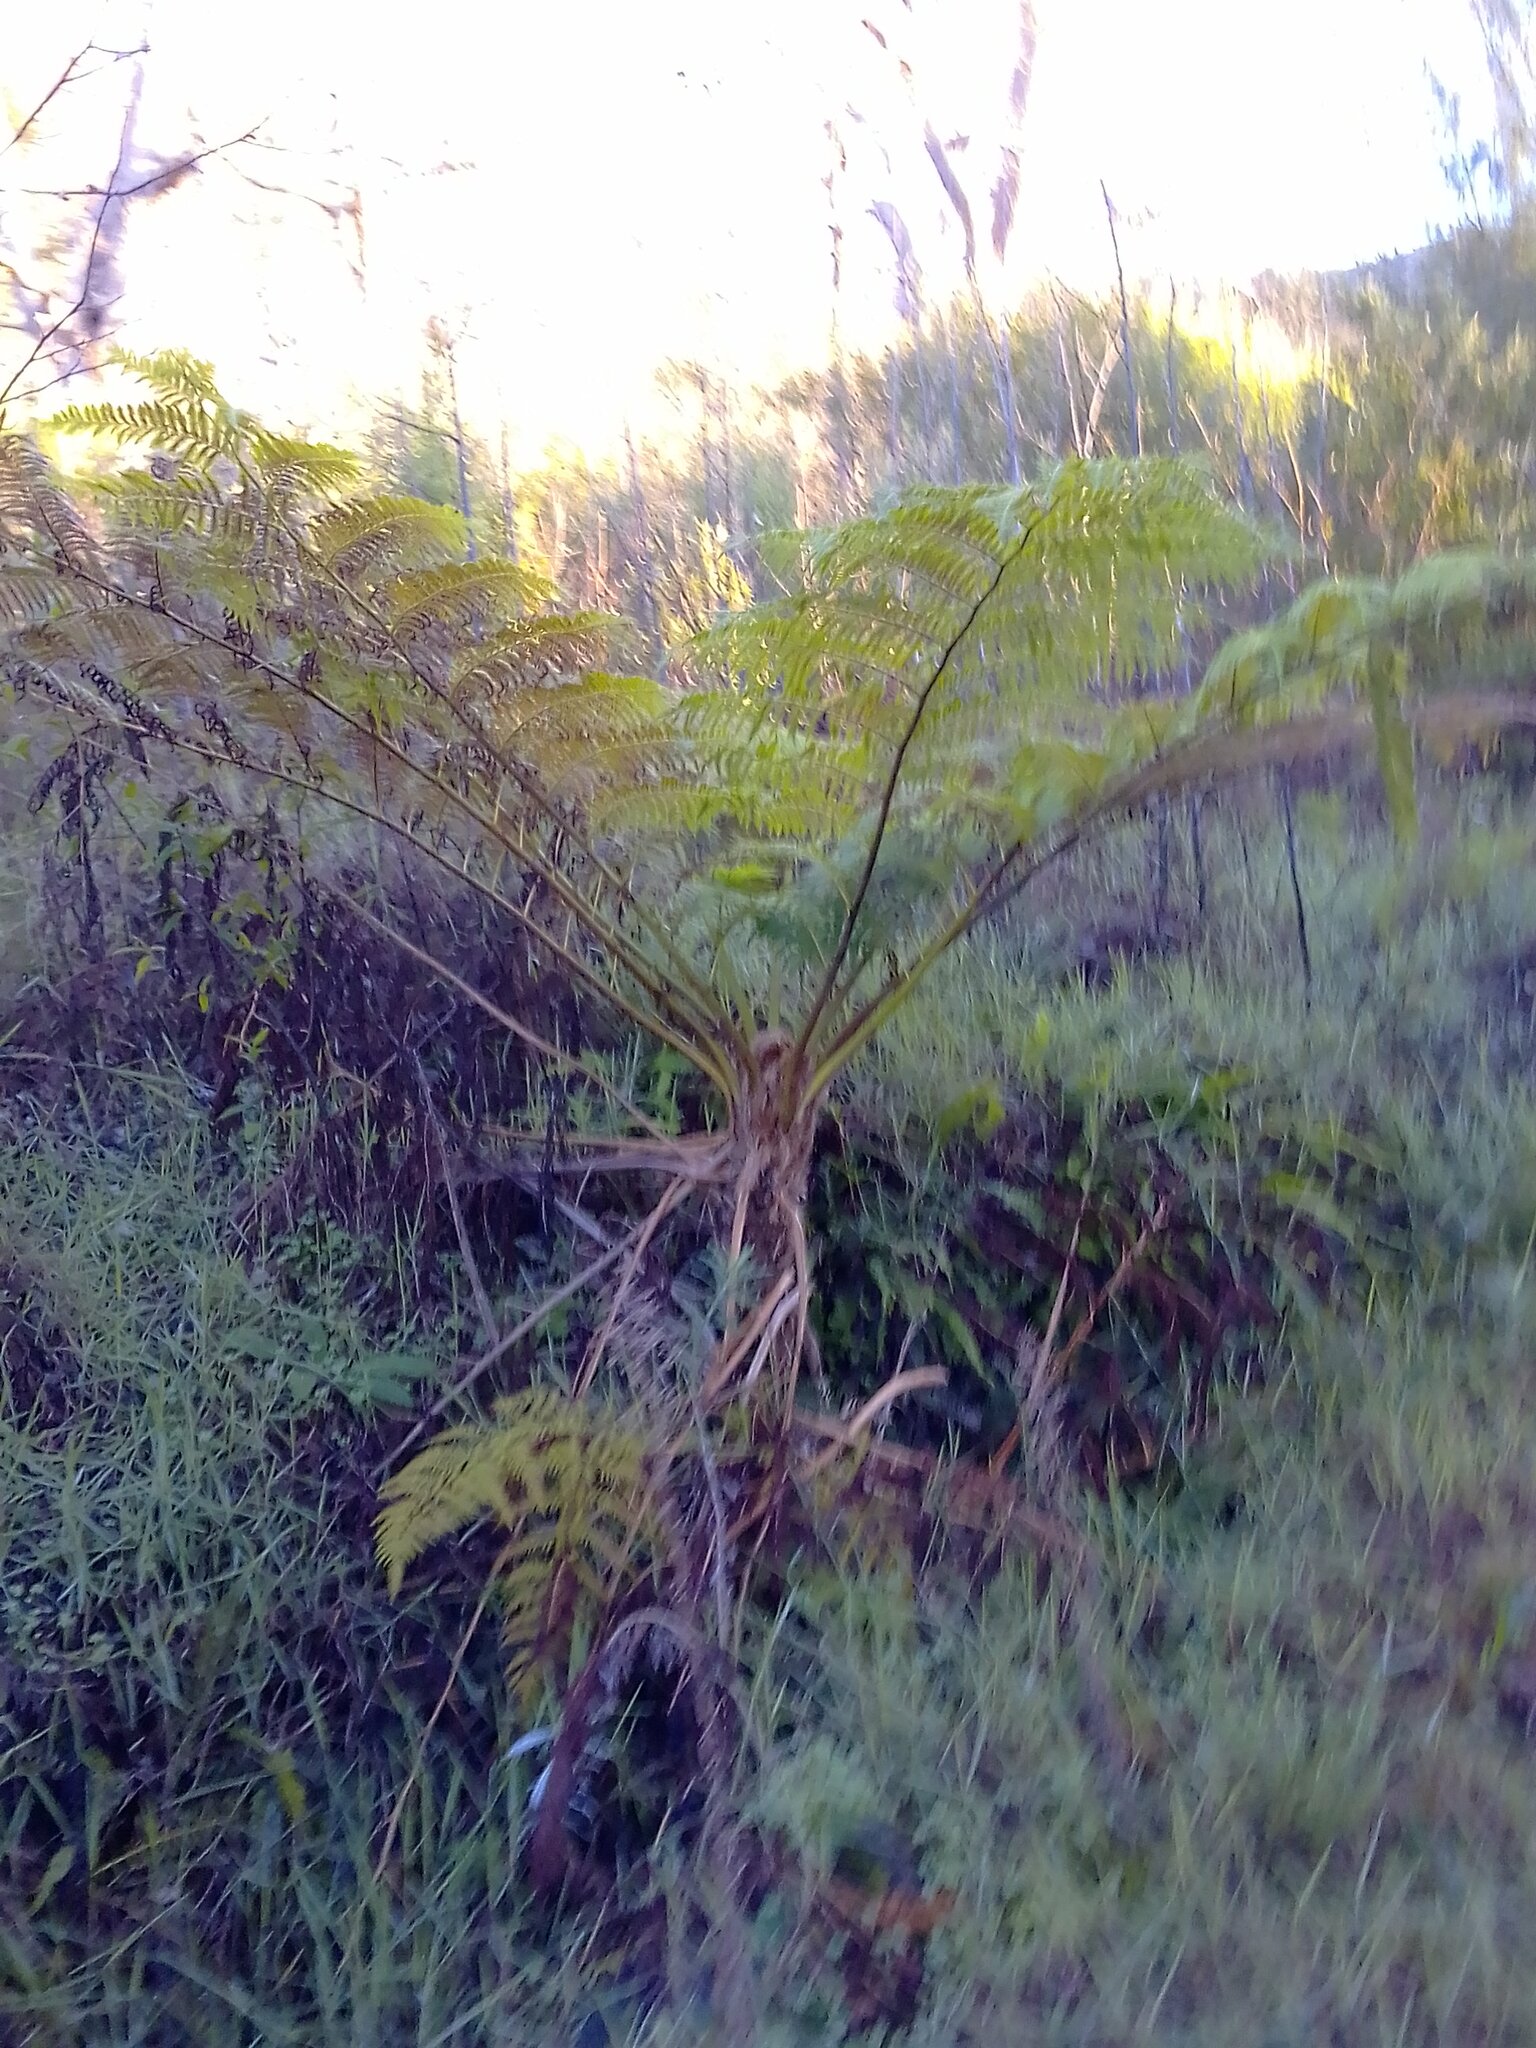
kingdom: Plantae
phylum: Tracheophyta
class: Polypodiopsida
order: Cyatheales
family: Cyatheaceae
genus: Sphaeropteris
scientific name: Sphaeropteris cooperi
